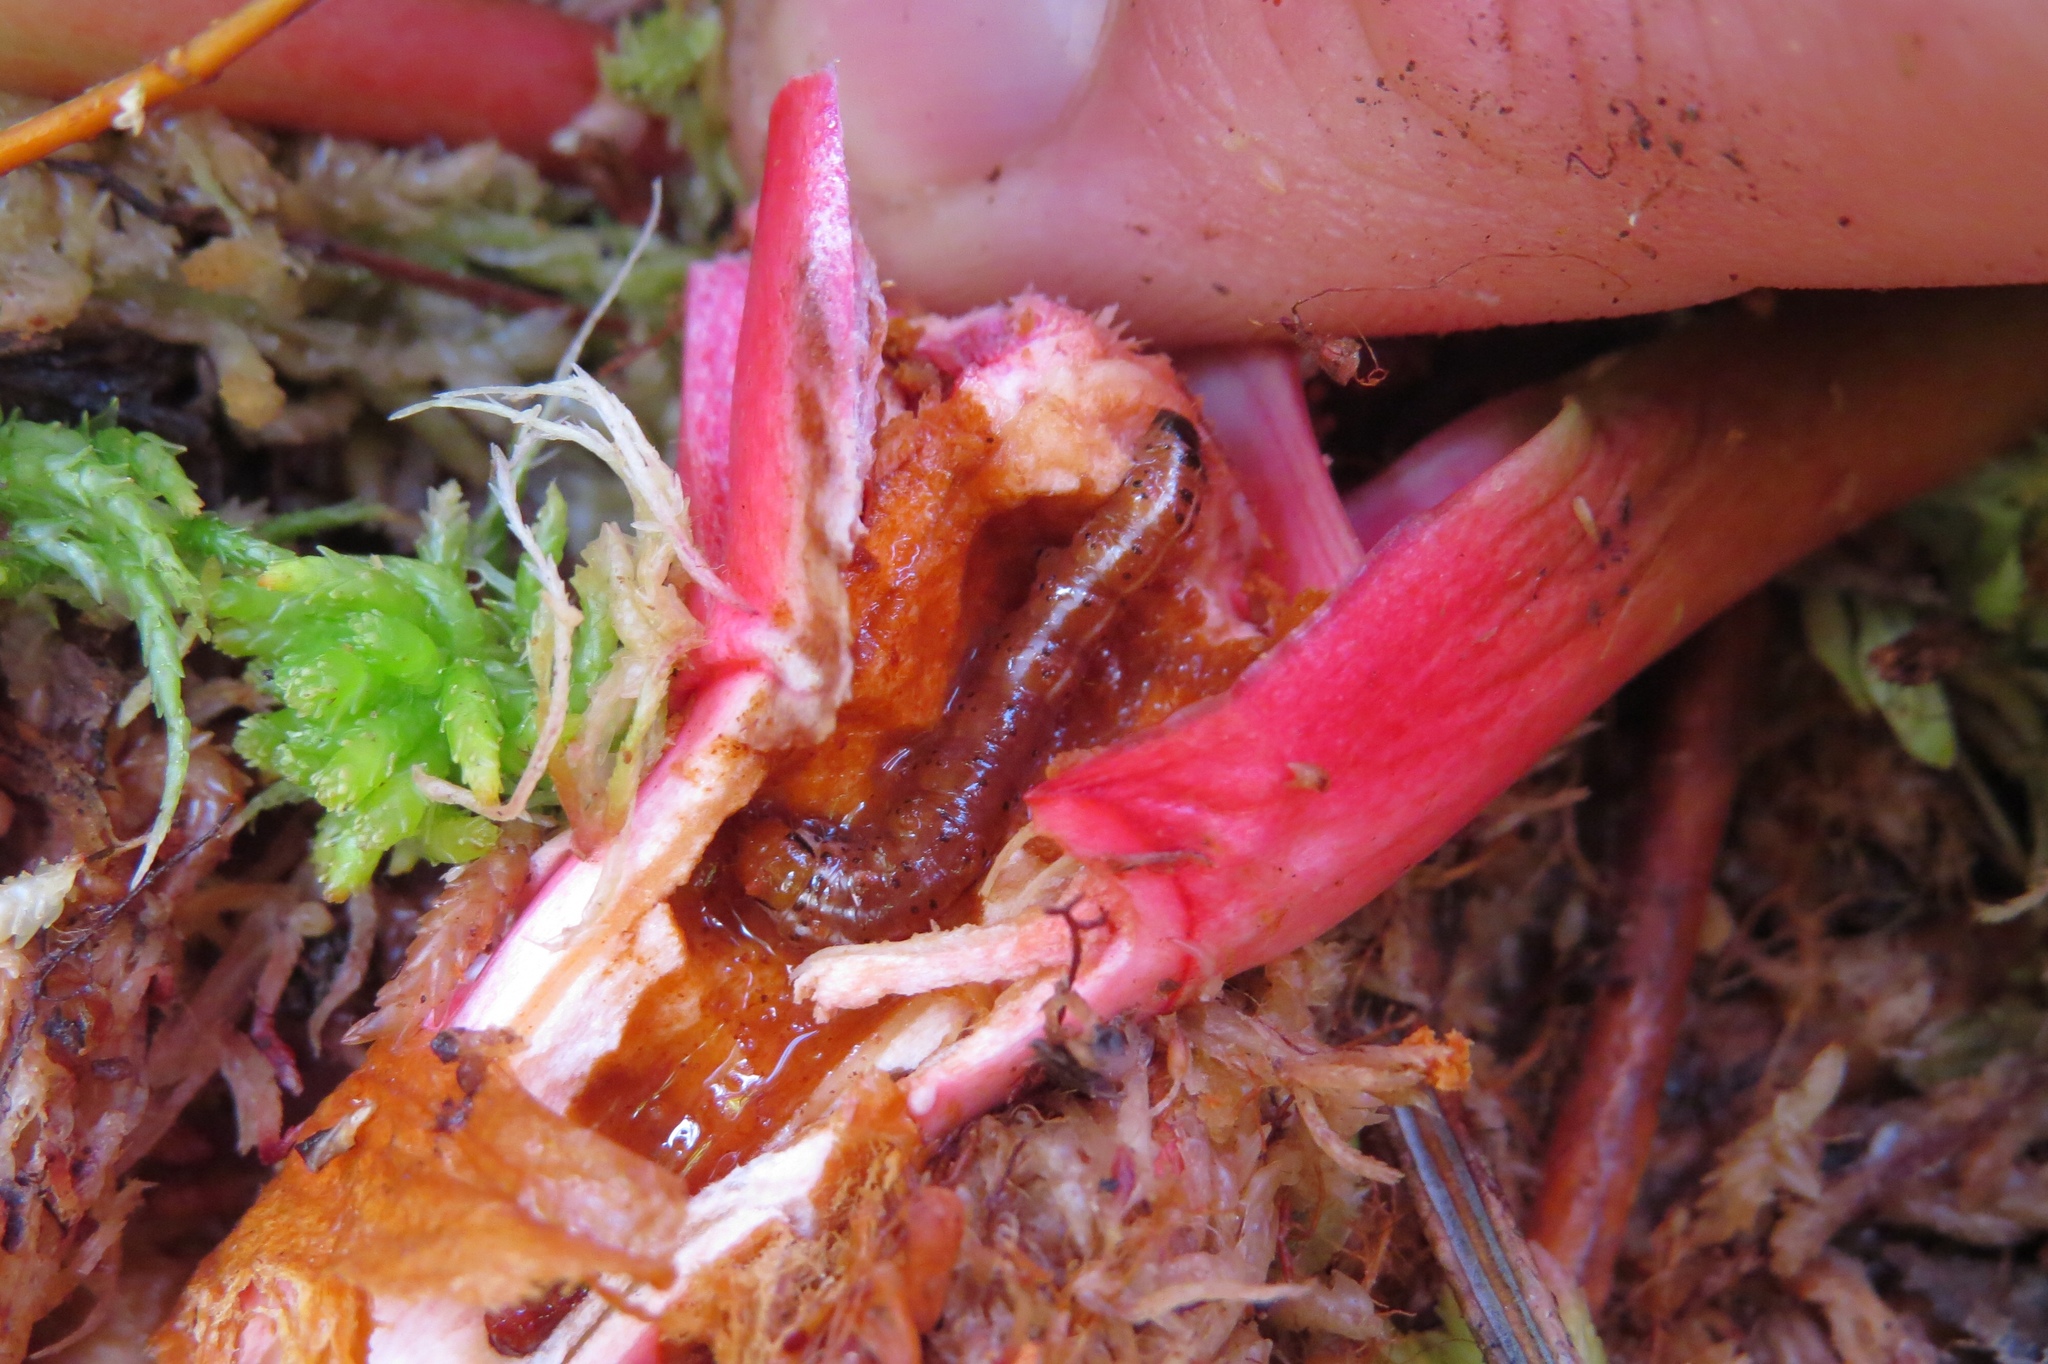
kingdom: Animalia
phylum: Arthropoda
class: Insecta
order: Lepidoptera
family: Noctuidae
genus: Papaipema
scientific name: Papaipema appassionata
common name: Pitcher plant borer moth
